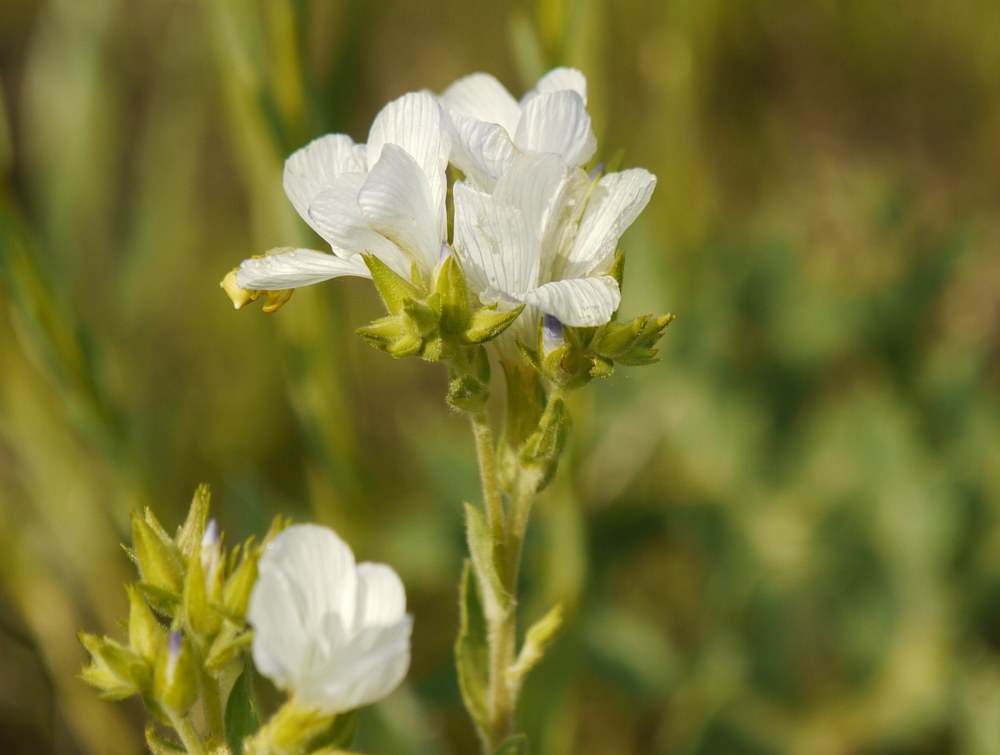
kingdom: Plantae
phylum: Tracheophyta
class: Magnoliopsida
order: Malpighiales
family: Linaceae
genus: Linum
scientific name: Linum hirsutum
